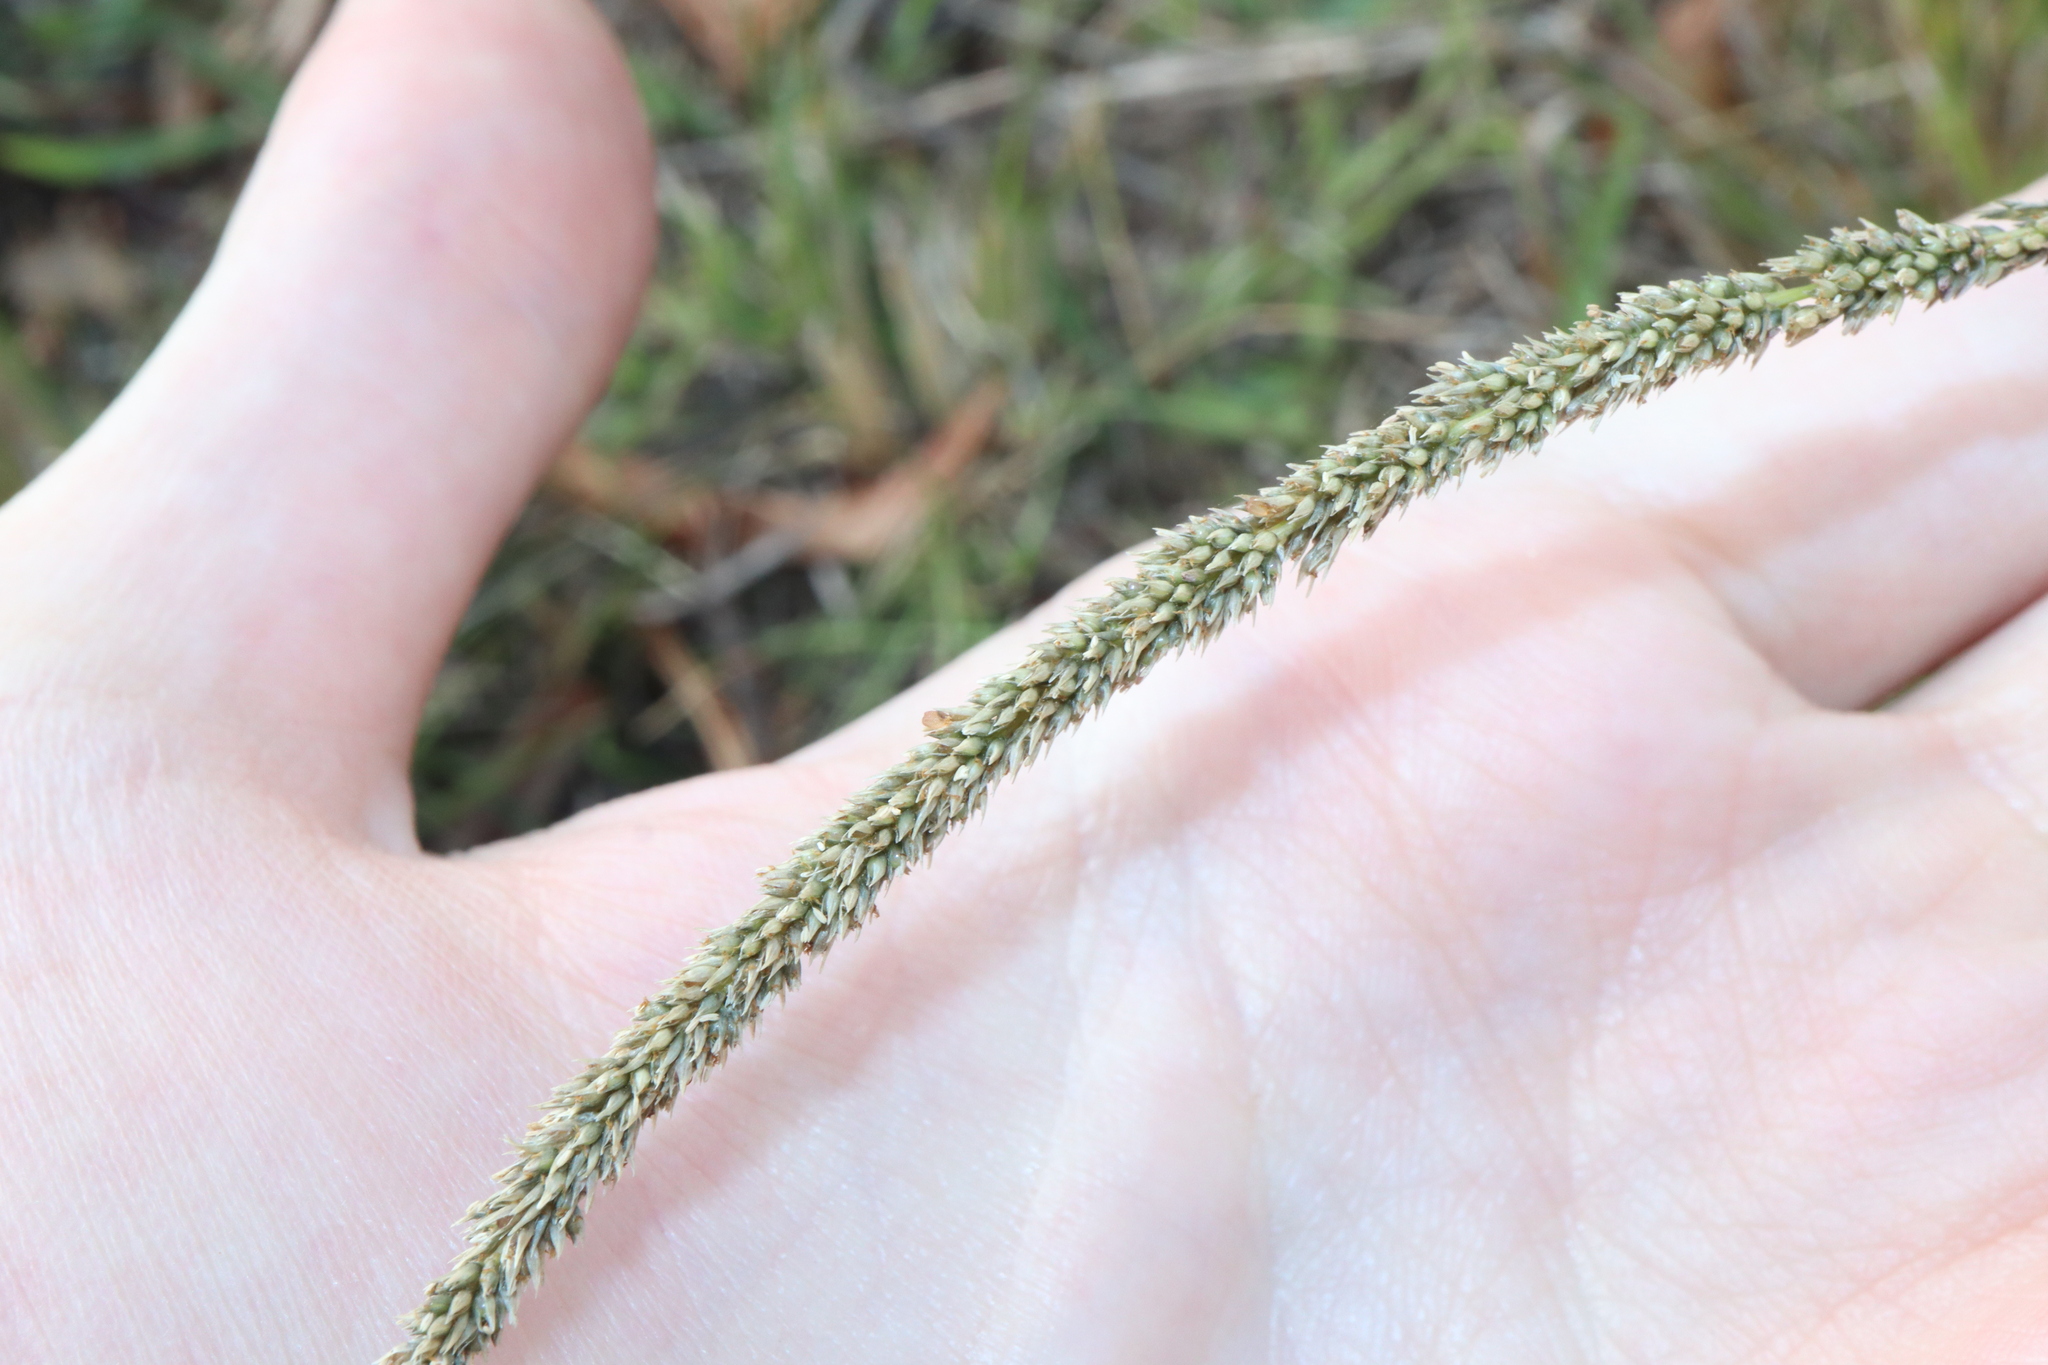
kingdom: Plantae
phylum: Tracheophyta
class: Liliopsida
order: Poales
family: Poaceae
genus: Sporobolus
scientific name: Sporobolus africanus
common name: African dropseed
